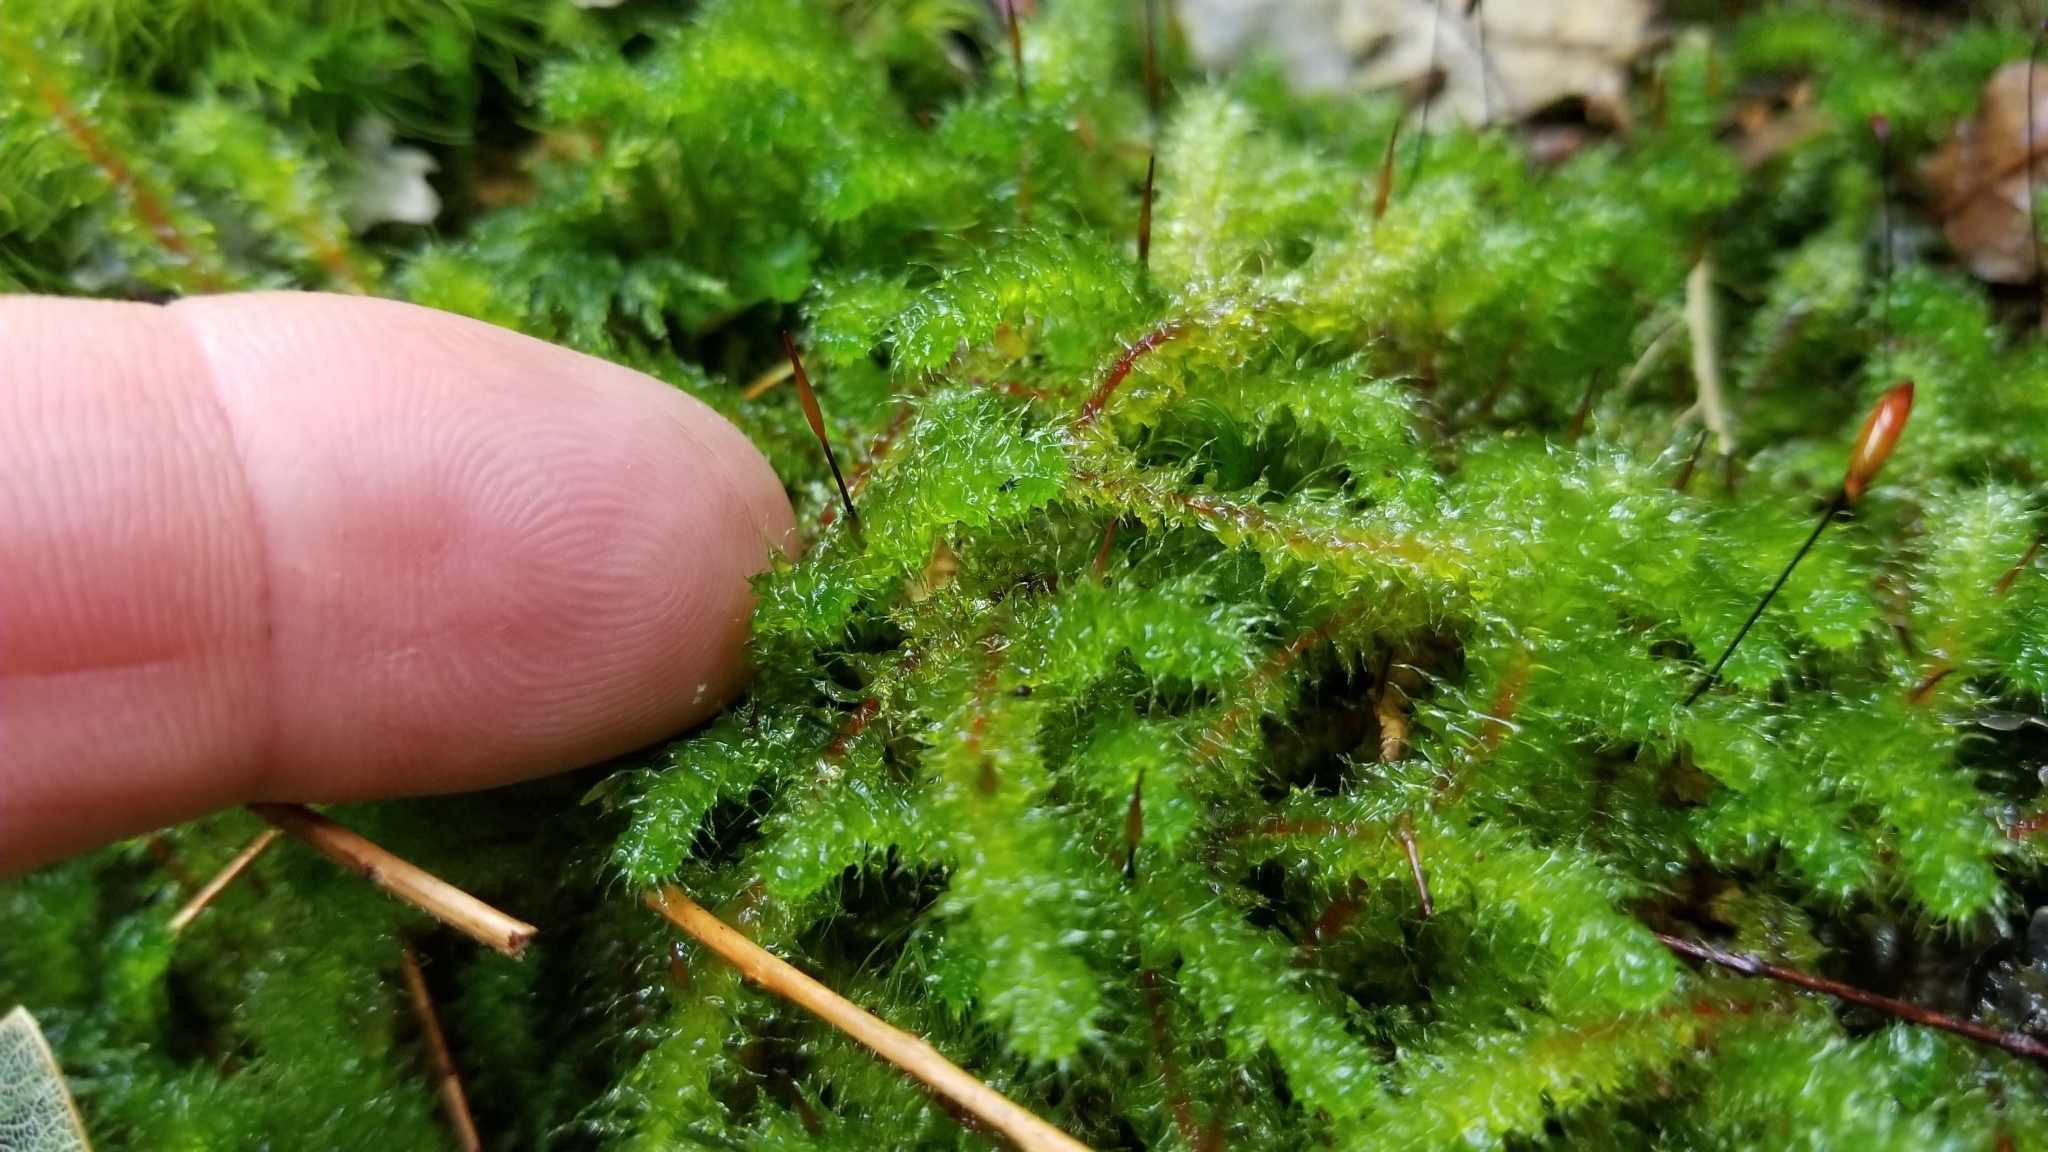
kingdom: Plantae
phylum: Bryophyta
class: Bryopsida
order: Ptychomniales
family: Ptychomniaceae
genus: Ptychomnion
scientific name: Ptychomnion aciculare
